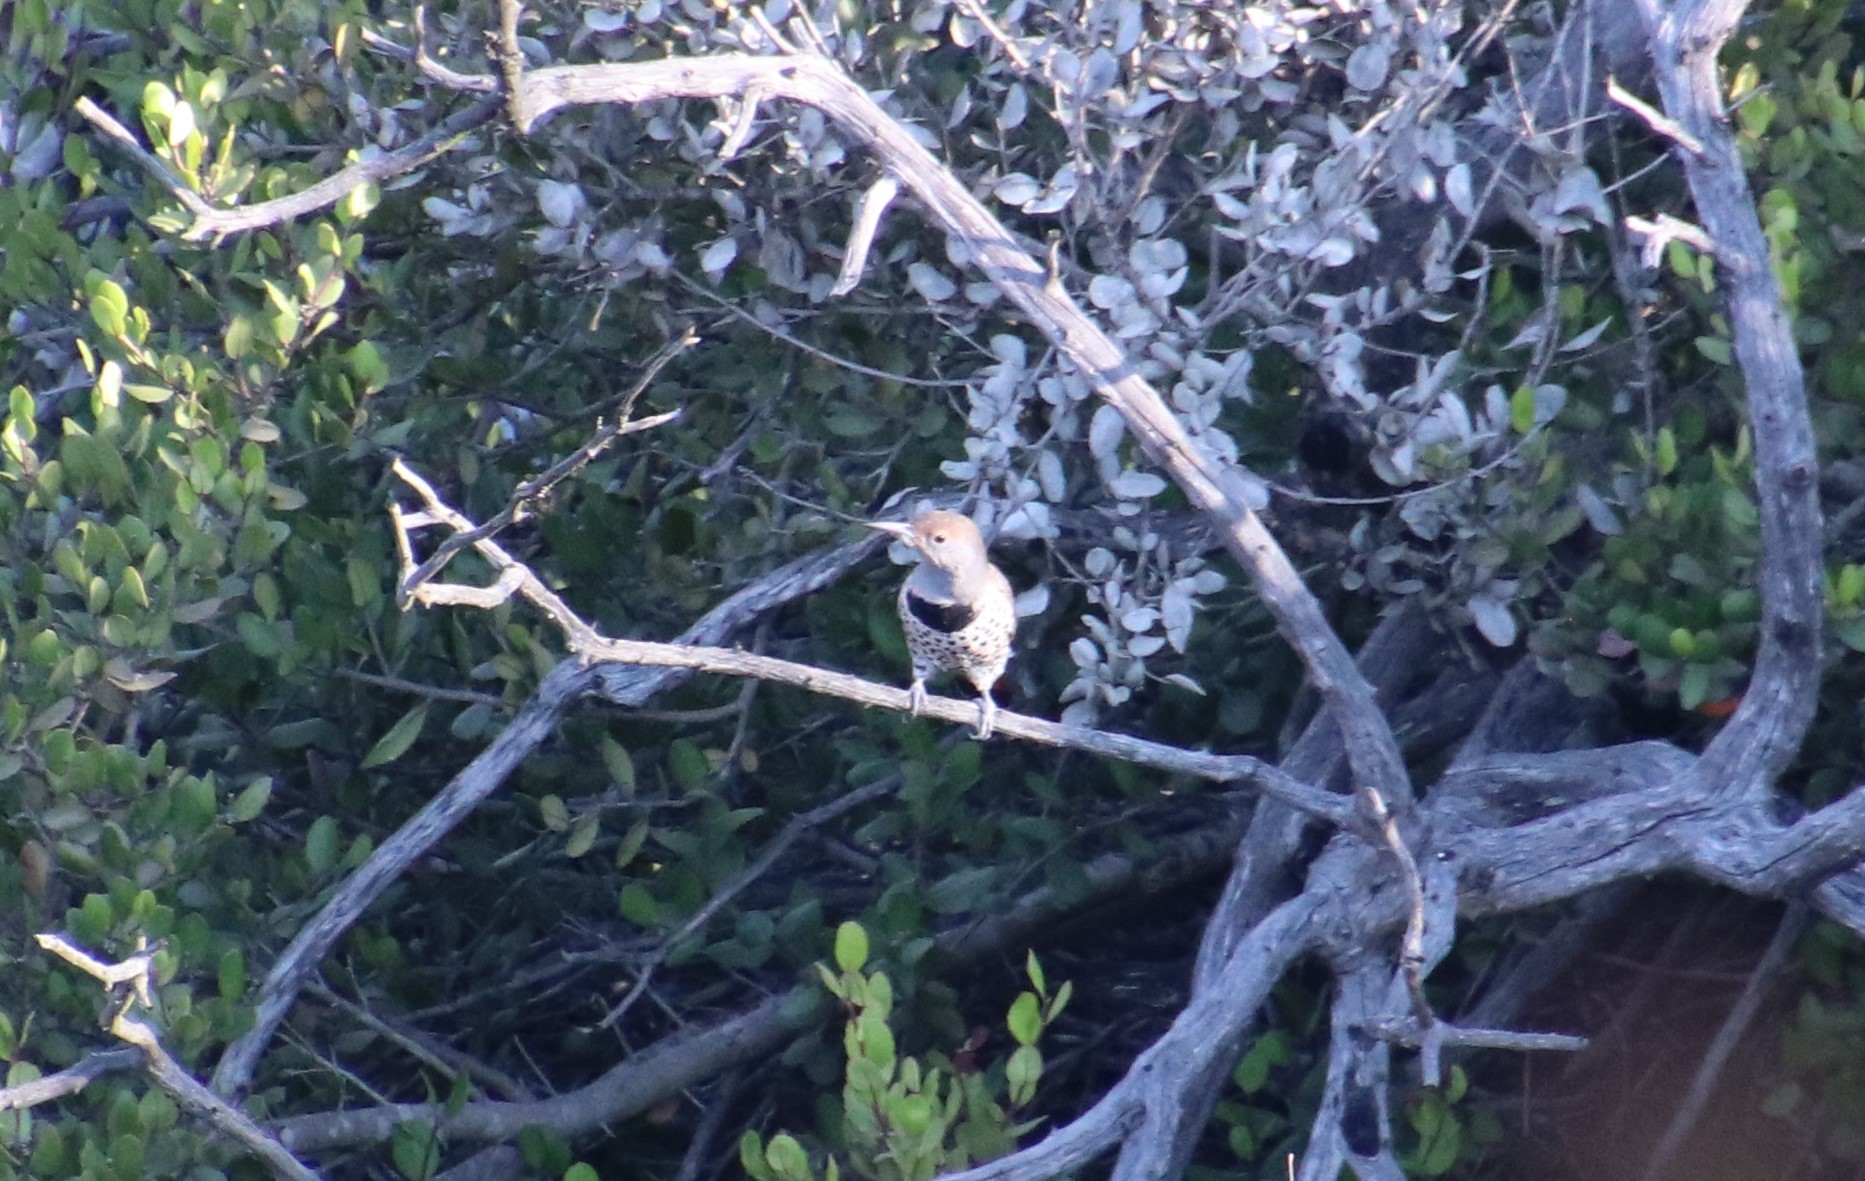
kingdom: Animalia
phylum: Chordata
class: Aves
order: Piciformes
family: Picidae
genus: Colaptes
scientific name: Colaptes auratus
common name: Northern flicker
